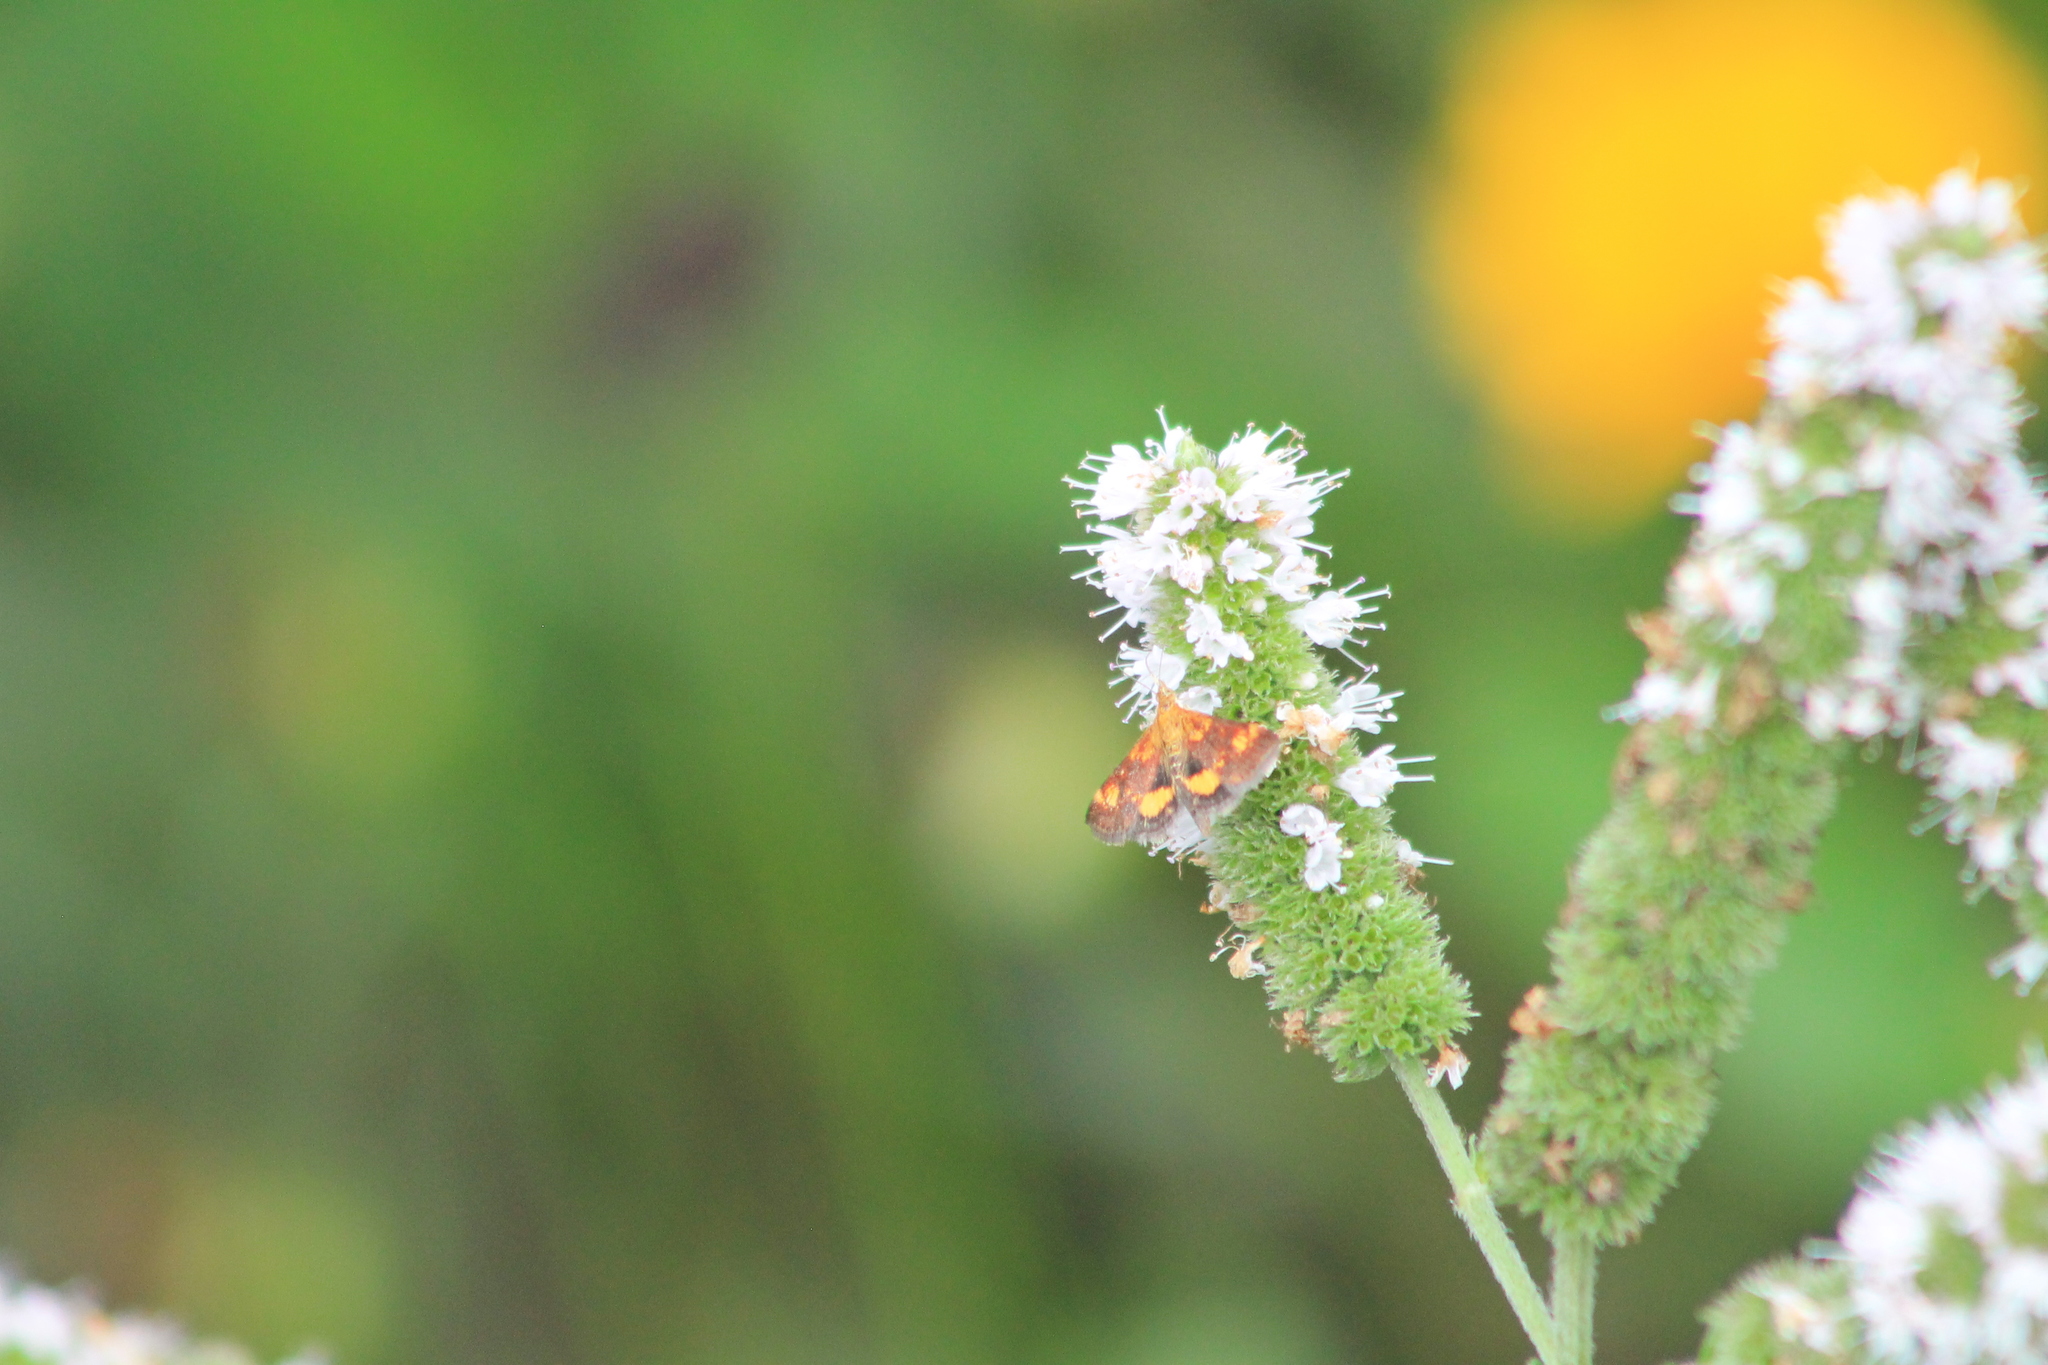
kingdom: Animalia
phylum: Arthropoda
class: Insecta
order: Lepidoptera
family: Crambidae
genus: Pyrausta
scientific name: Pyrausta orphisalis
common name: Orange mint moth
